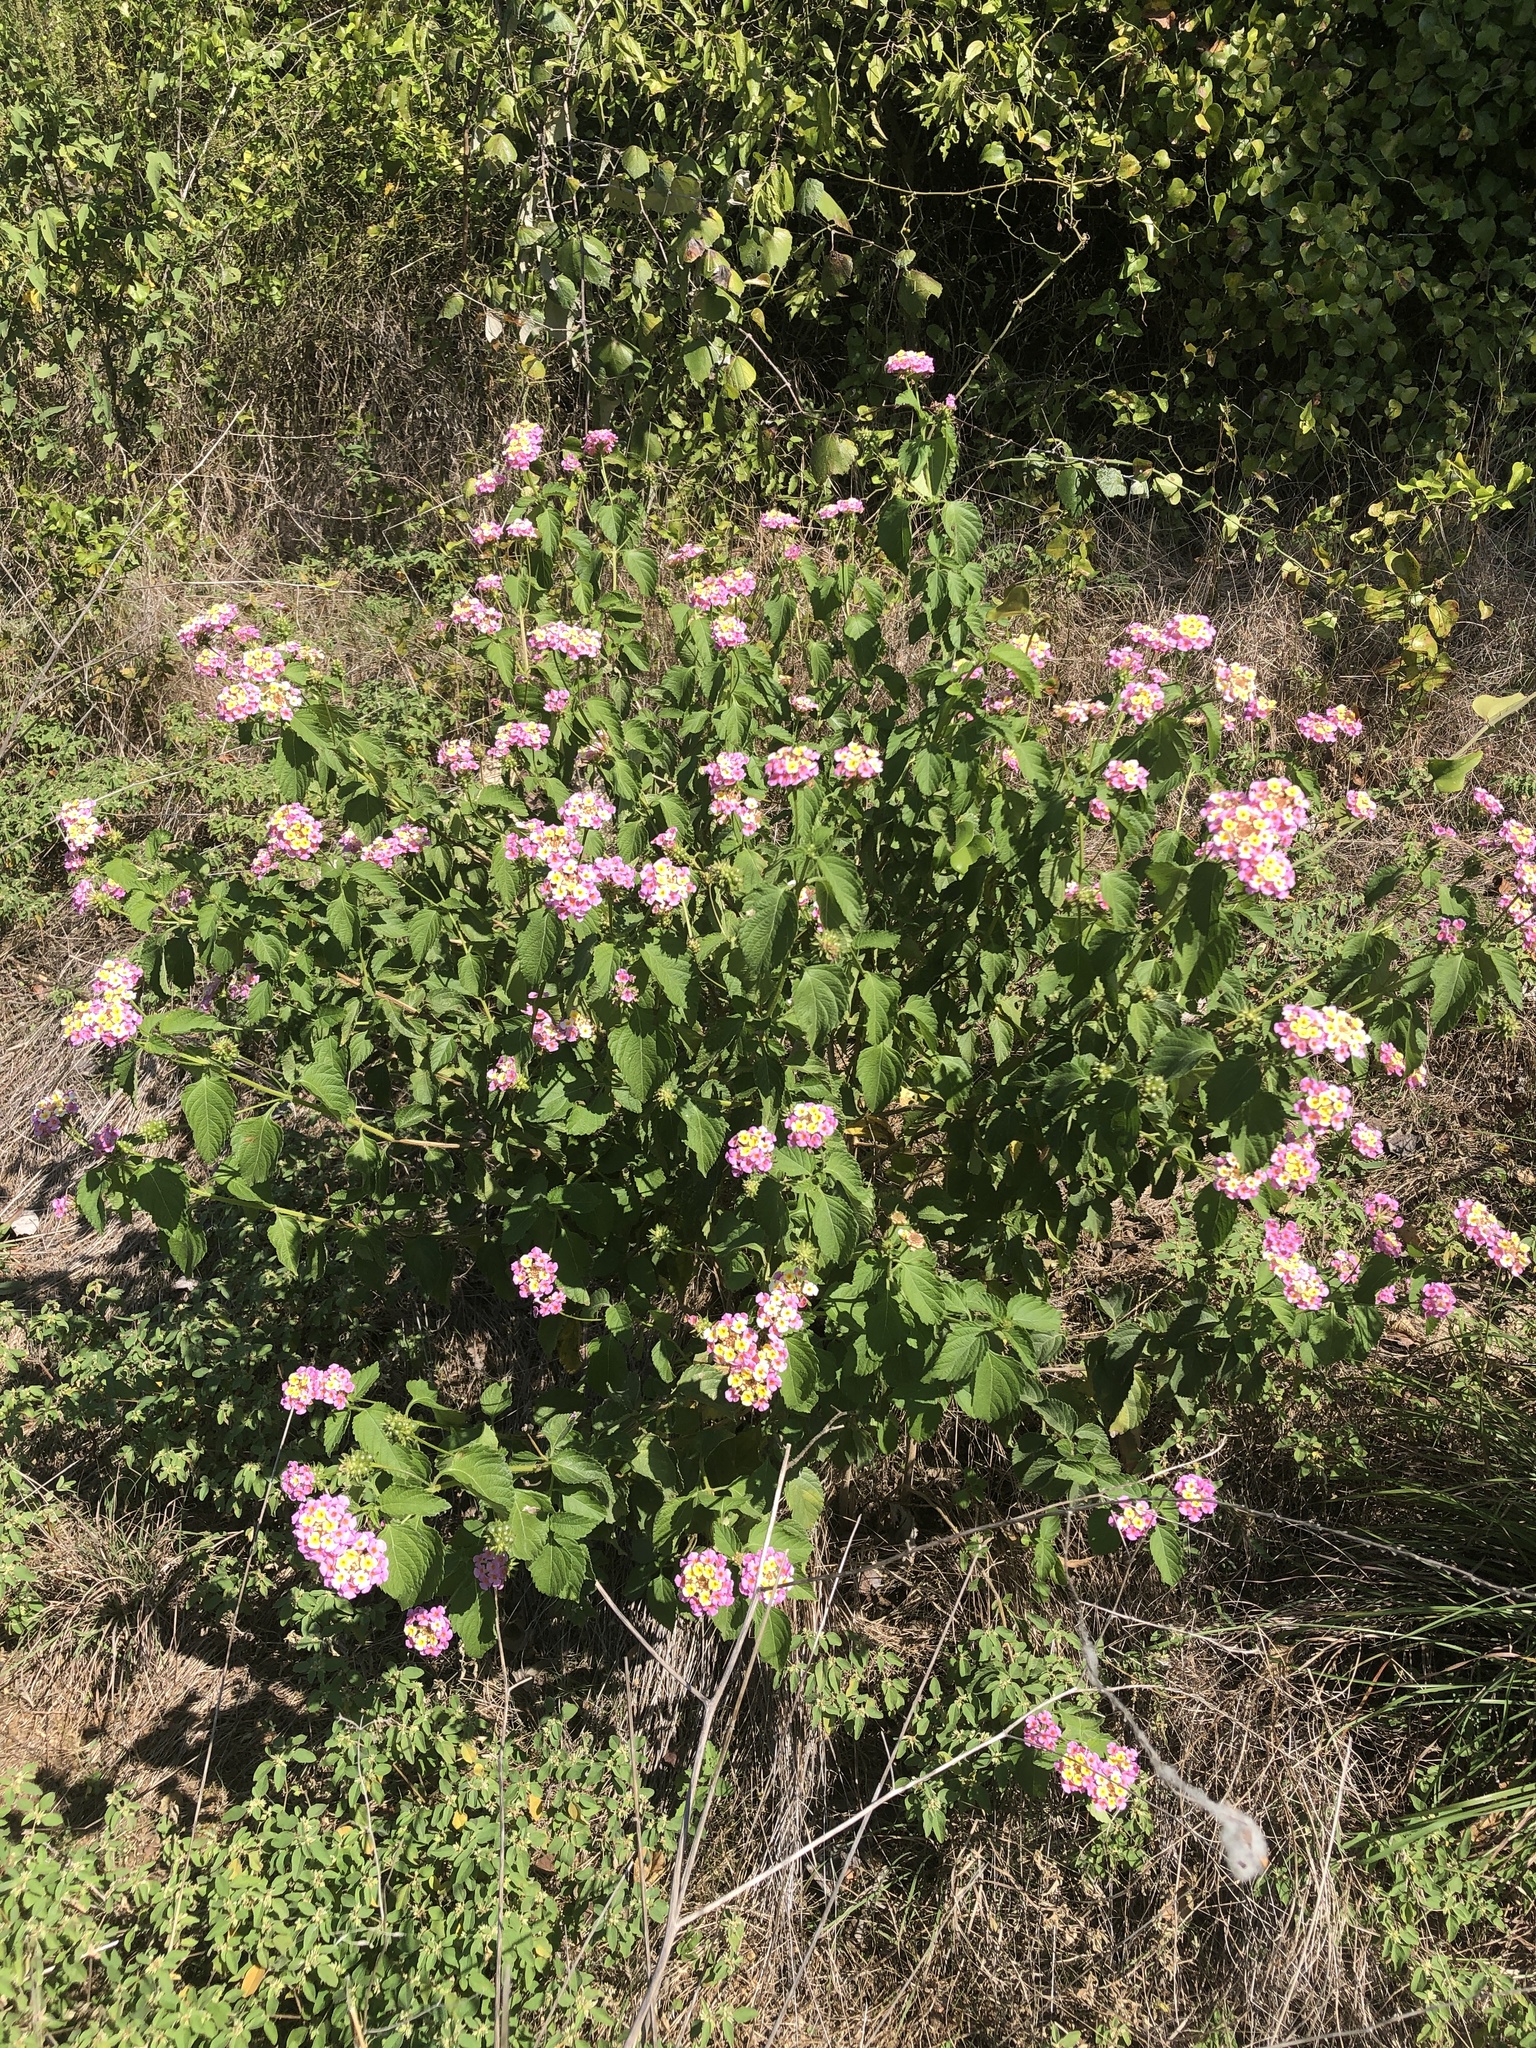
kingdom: Plantae
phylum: Tracheophyta
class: Magnoliopsida
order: Lamiales
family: Verbenaceae
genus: Lantana
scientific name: Lantana strigocamara
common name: Lantana
